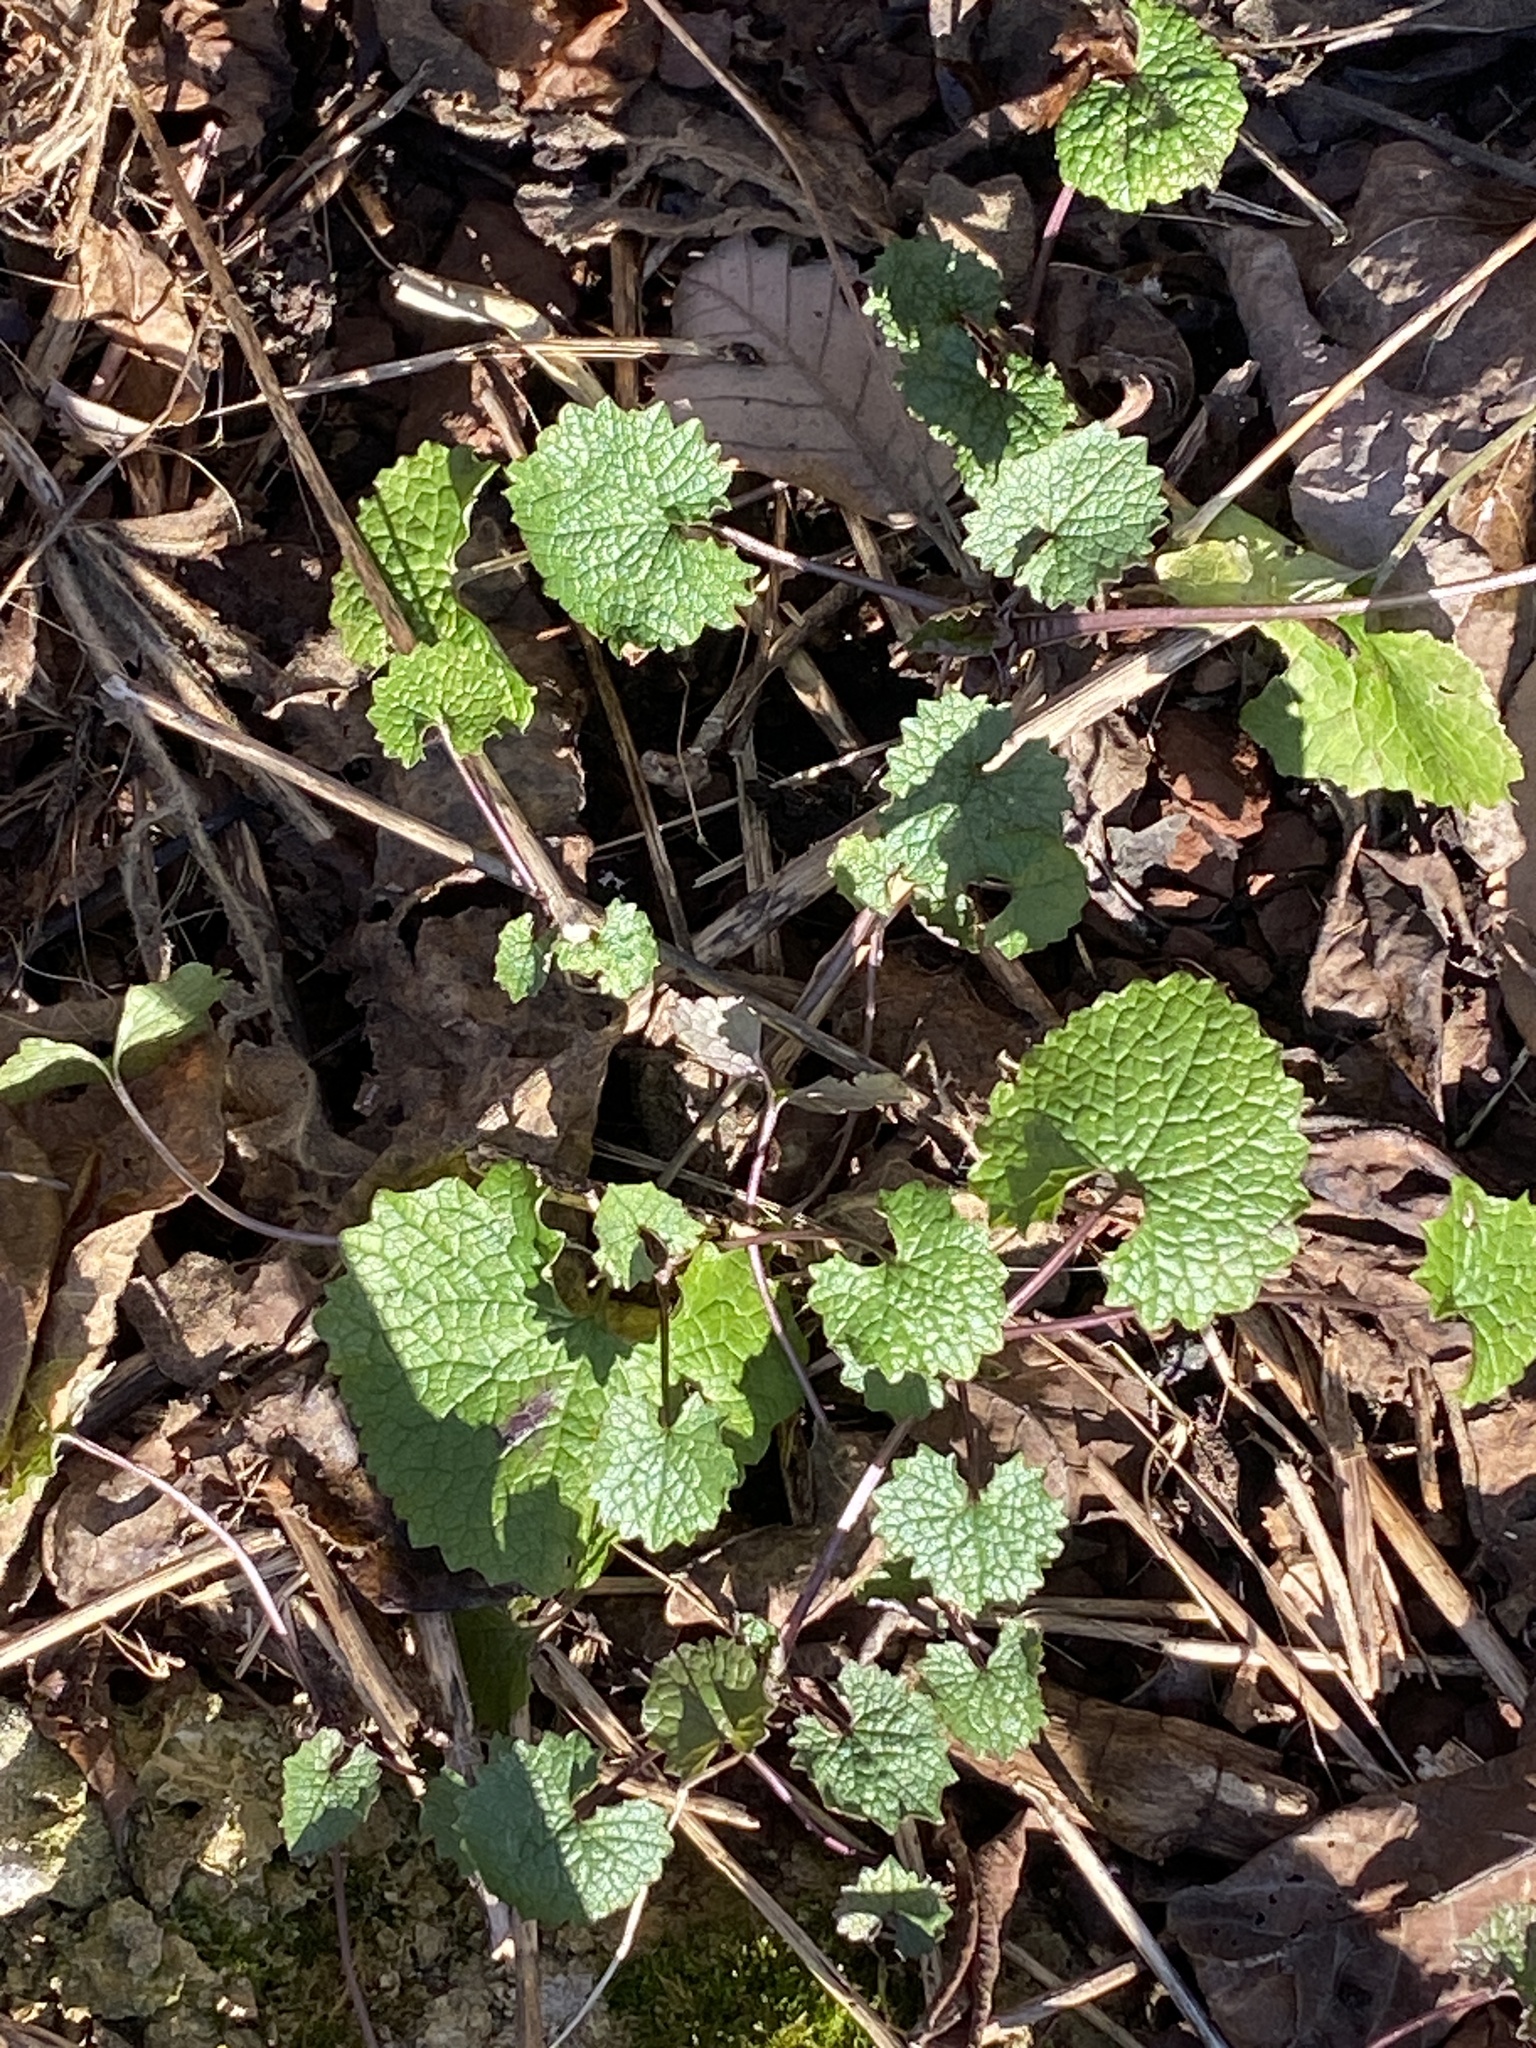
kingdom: Plantae
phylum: Tracheophyta
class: Magnoliopsida
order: Brassicales
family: Brassicaceae
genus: Alliaria
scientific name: Alliaria petiolata
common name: Garlic mustard
